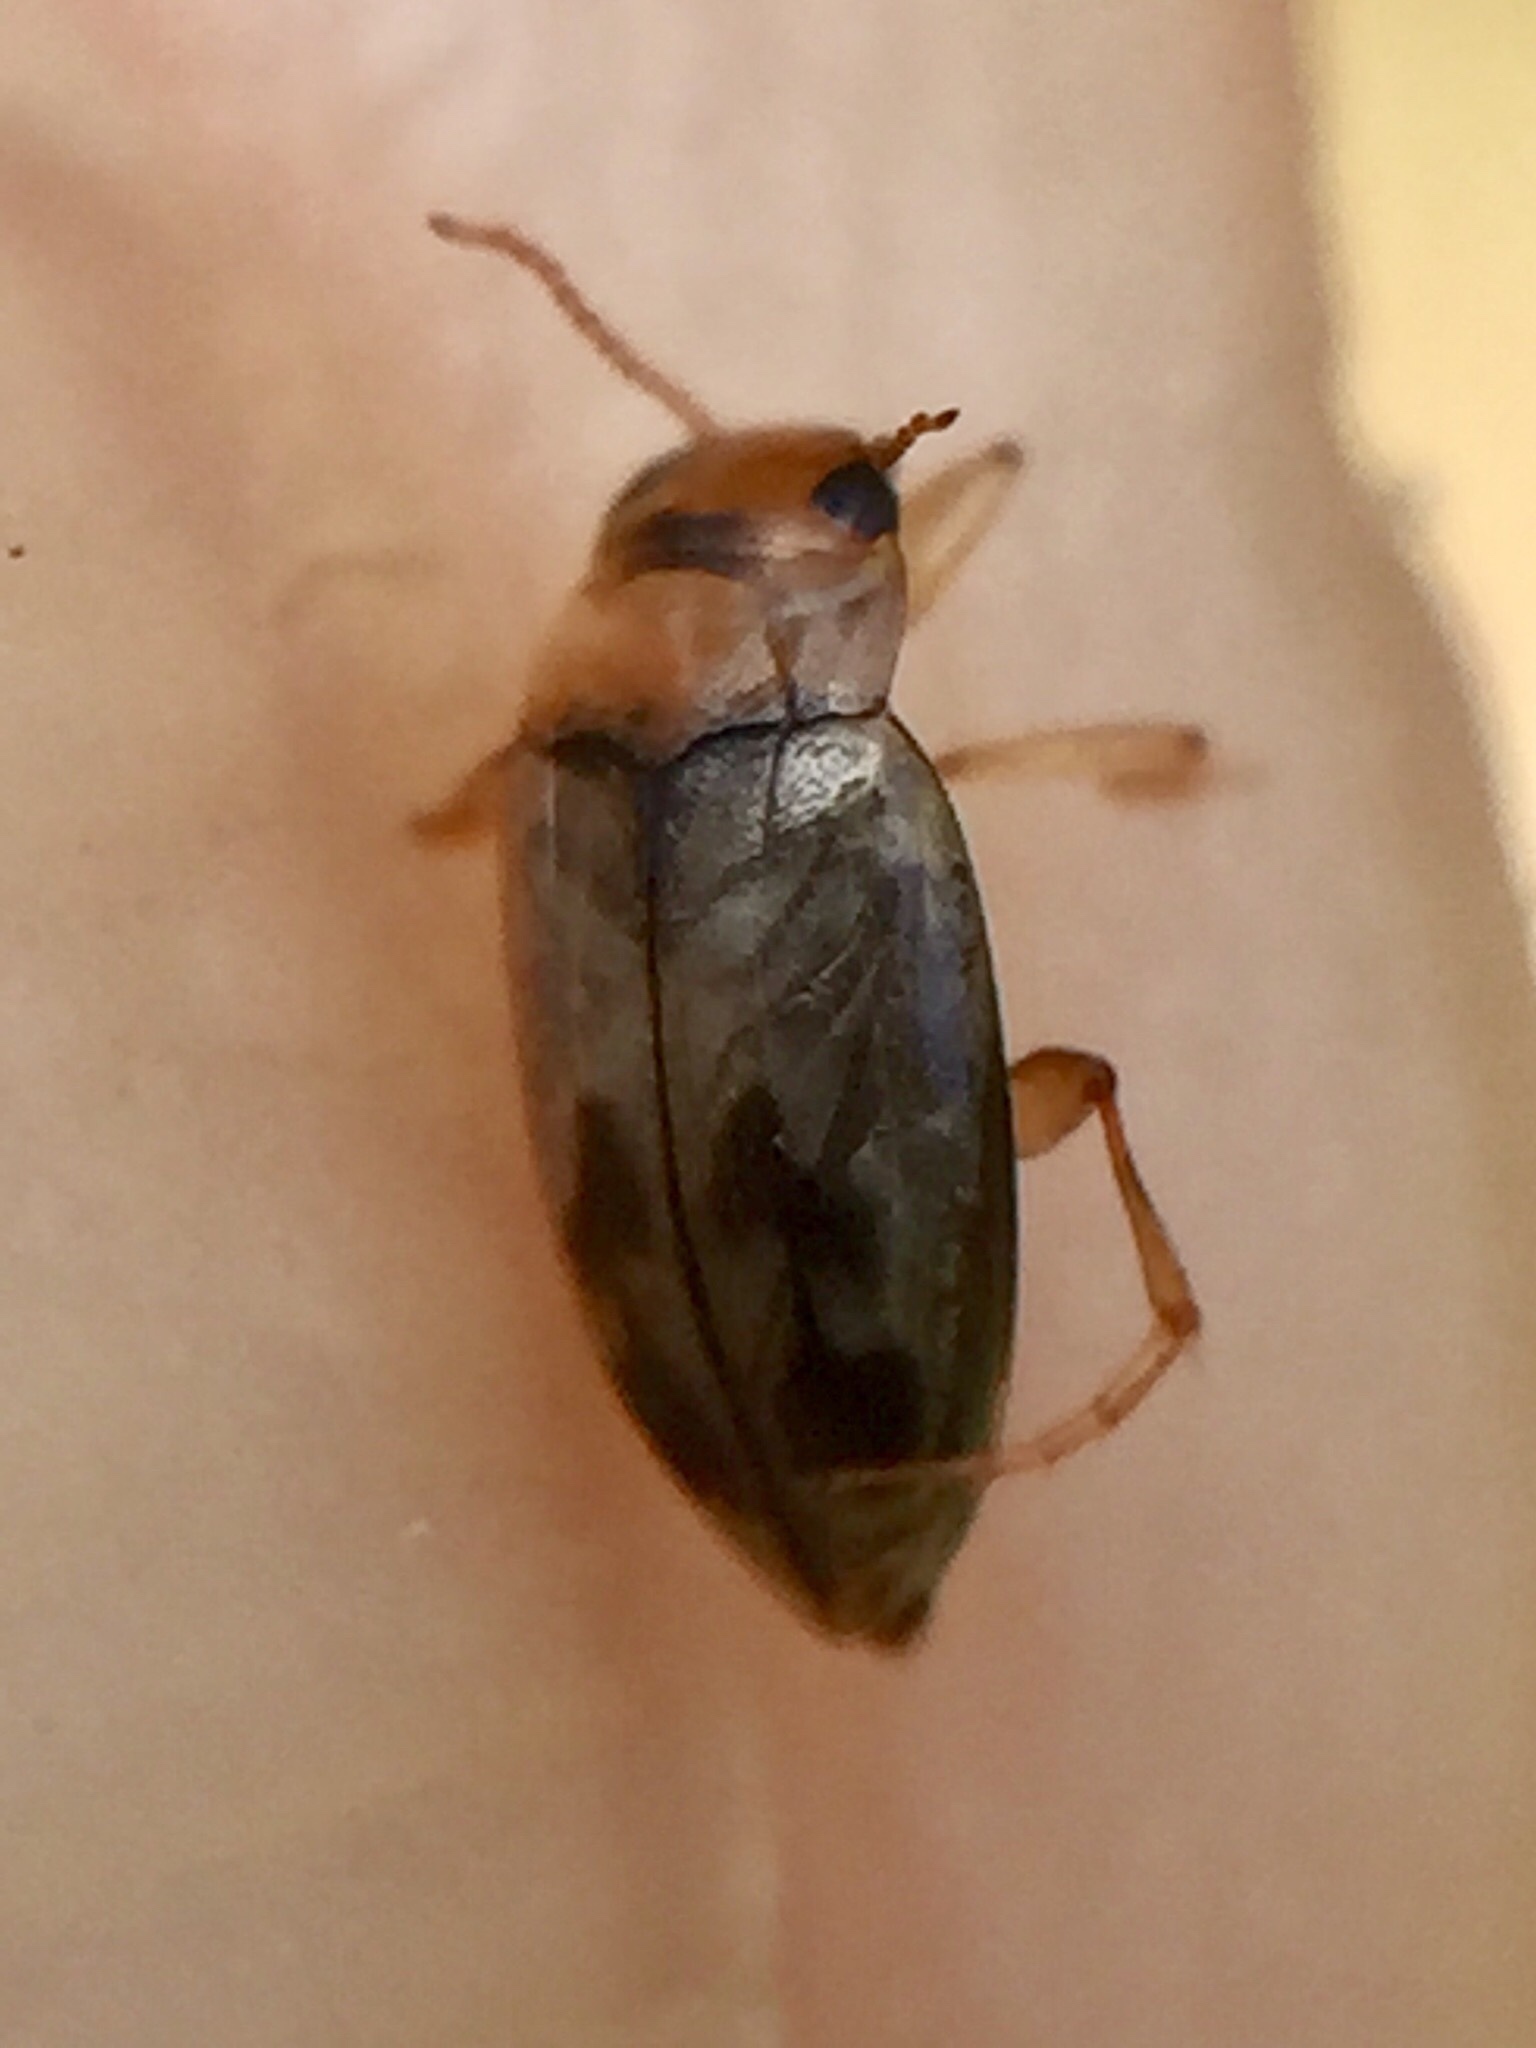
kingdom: Animalia
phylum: Arthropoda
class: Insecta
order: Coleoptera
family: Dytiscidae
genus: Allodessus
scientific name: Allodessus bistrigatus
